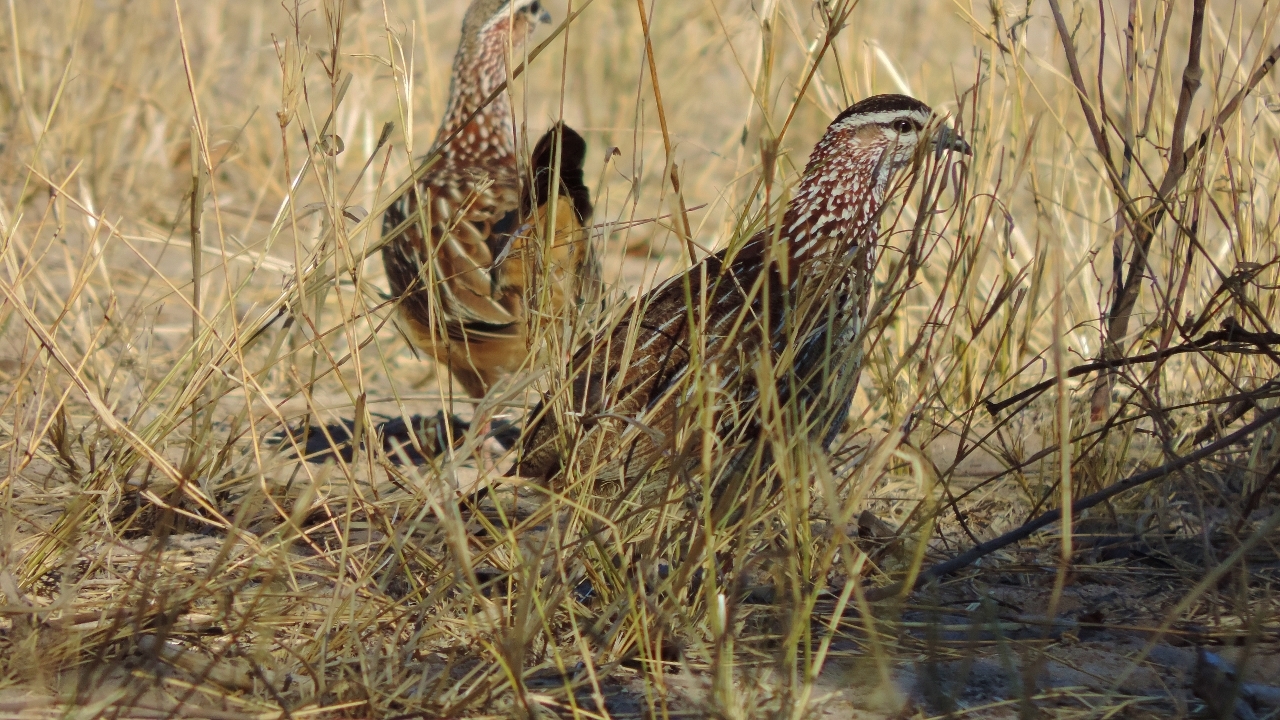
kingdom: Animalia
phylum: Chordata
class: Aves
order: Galliformes
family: Phasianidae
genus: Ortygornis
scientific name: Ortygornis sephaena
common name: Crested francolin
